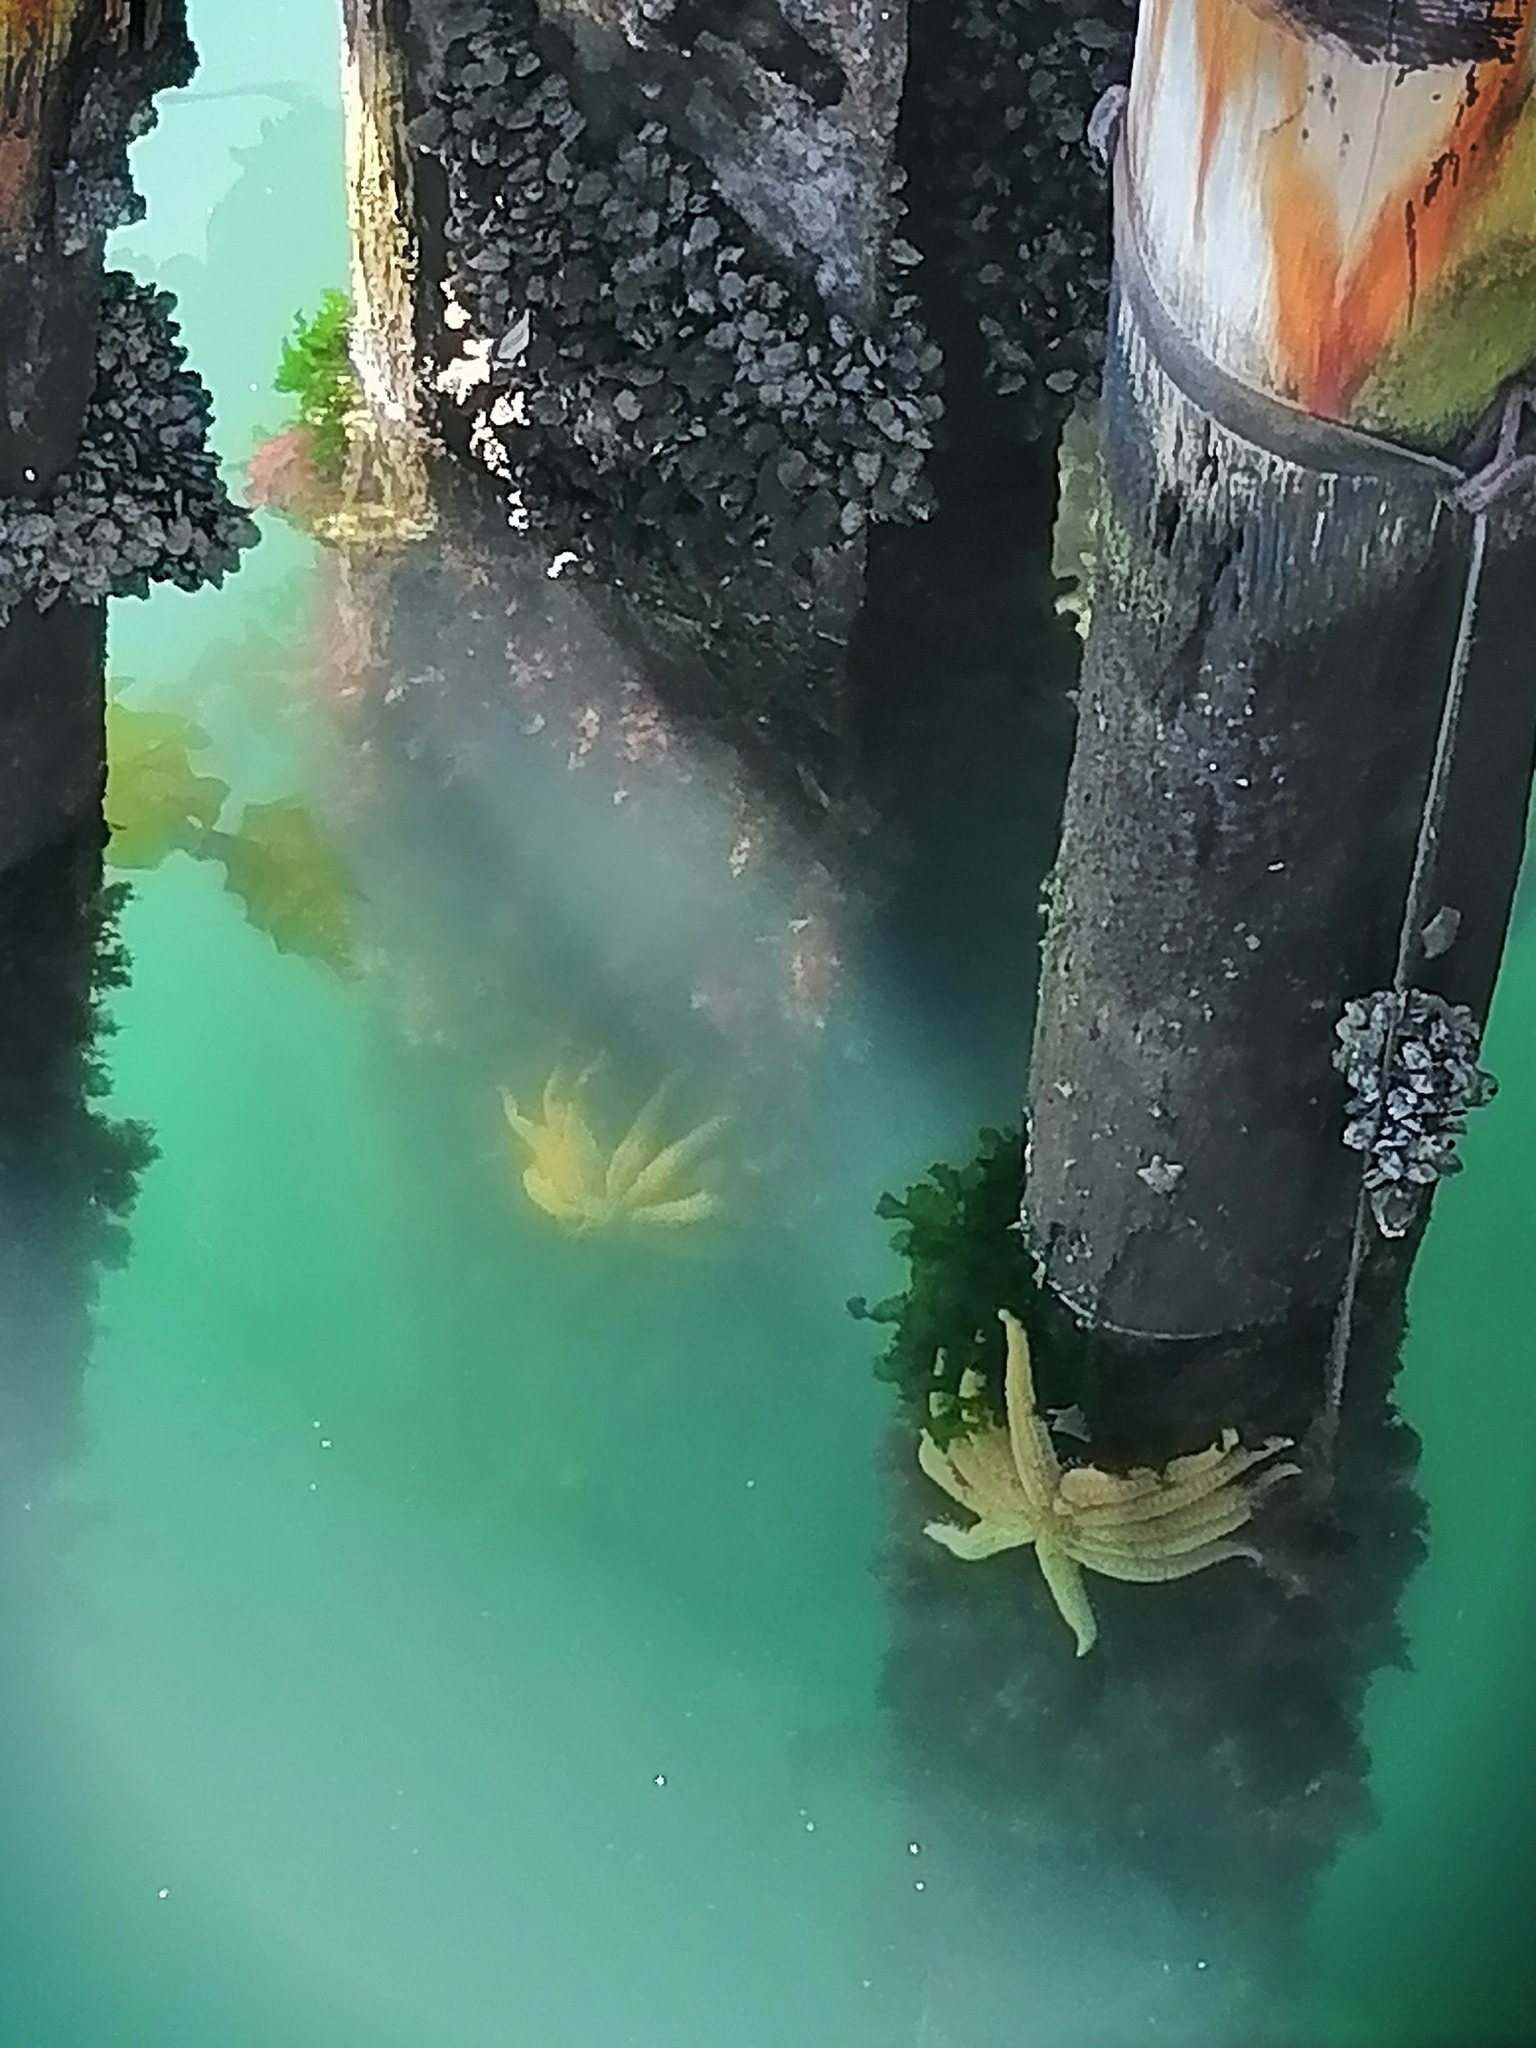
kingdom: Animalia
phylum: Echinodermata
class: Asteroidea
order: Forcipulatida
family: Asteriidae
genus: Coscinasterias
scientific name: Coscinasterias muricata
